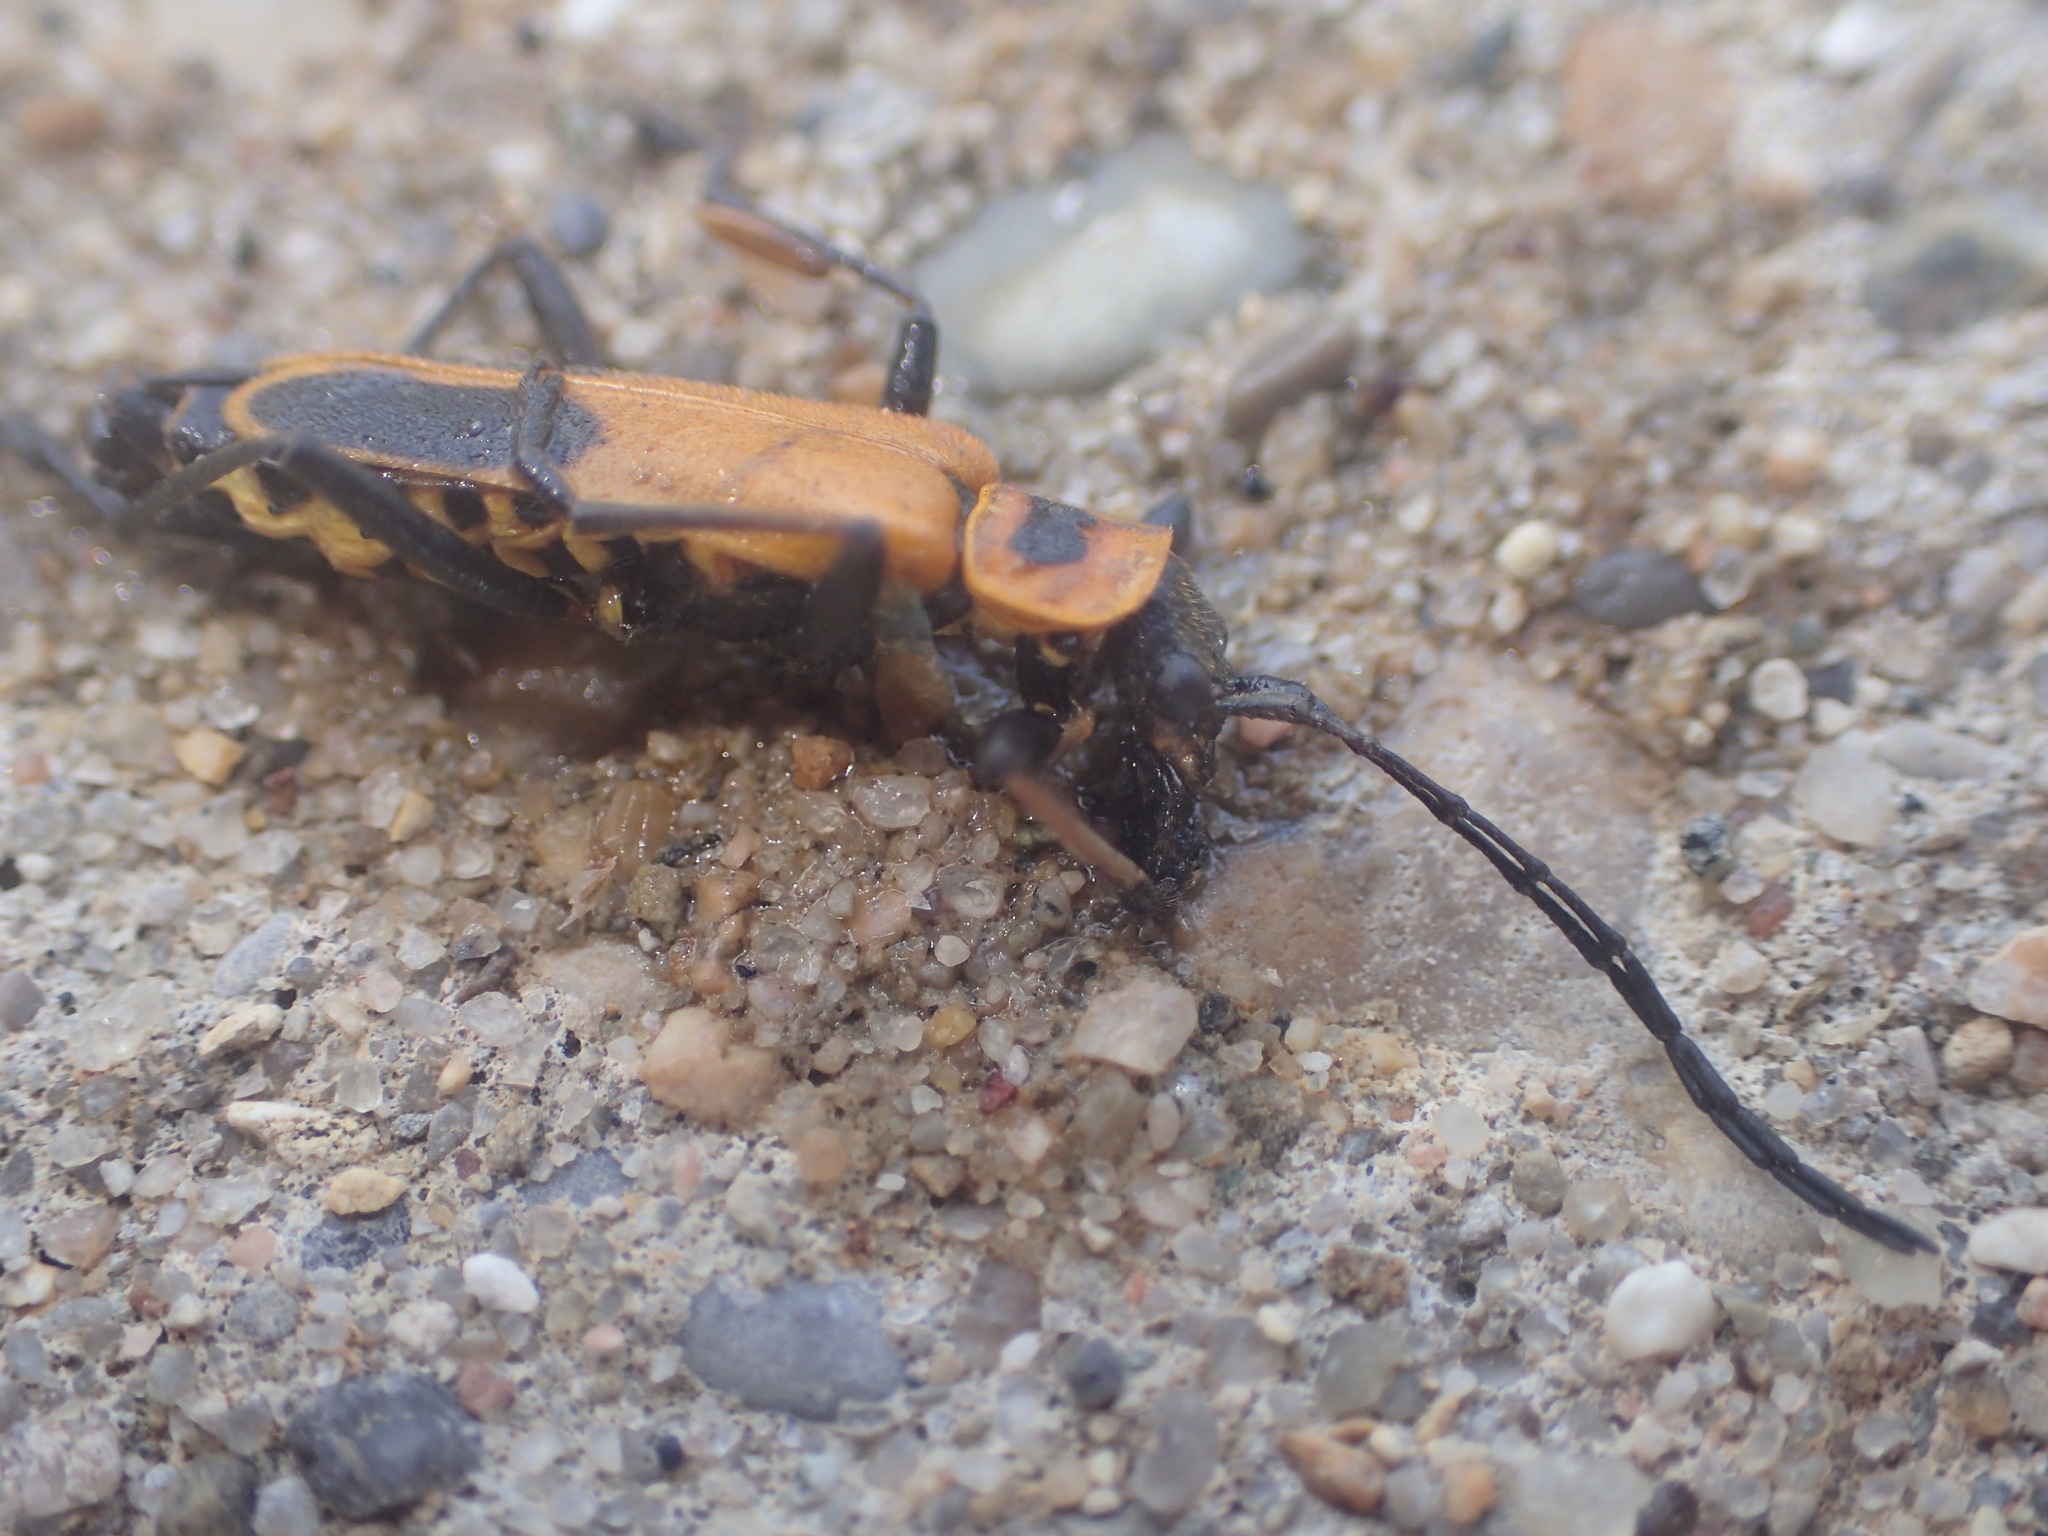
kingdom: Animalia
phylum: Arthropoda
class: Insecta
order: Coleoptera
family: Cantharidae
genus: Chauliognathus
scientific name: Chauliognathus pensylvanicus
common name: Goldenrod soldier beetle
